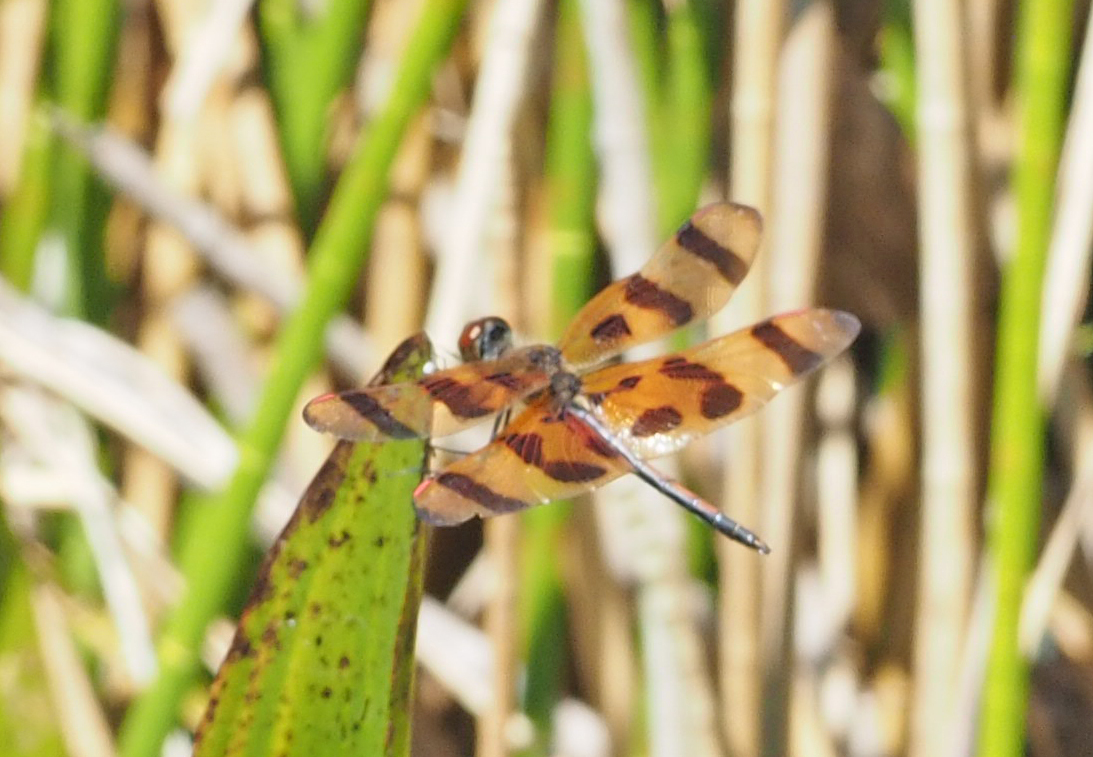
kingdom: Animalia
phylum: Arthropoda
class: Insecta
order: Odonata
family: Libellulidae
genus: Celithemis
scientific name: Celithemis eponina
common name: Halloween pennant
